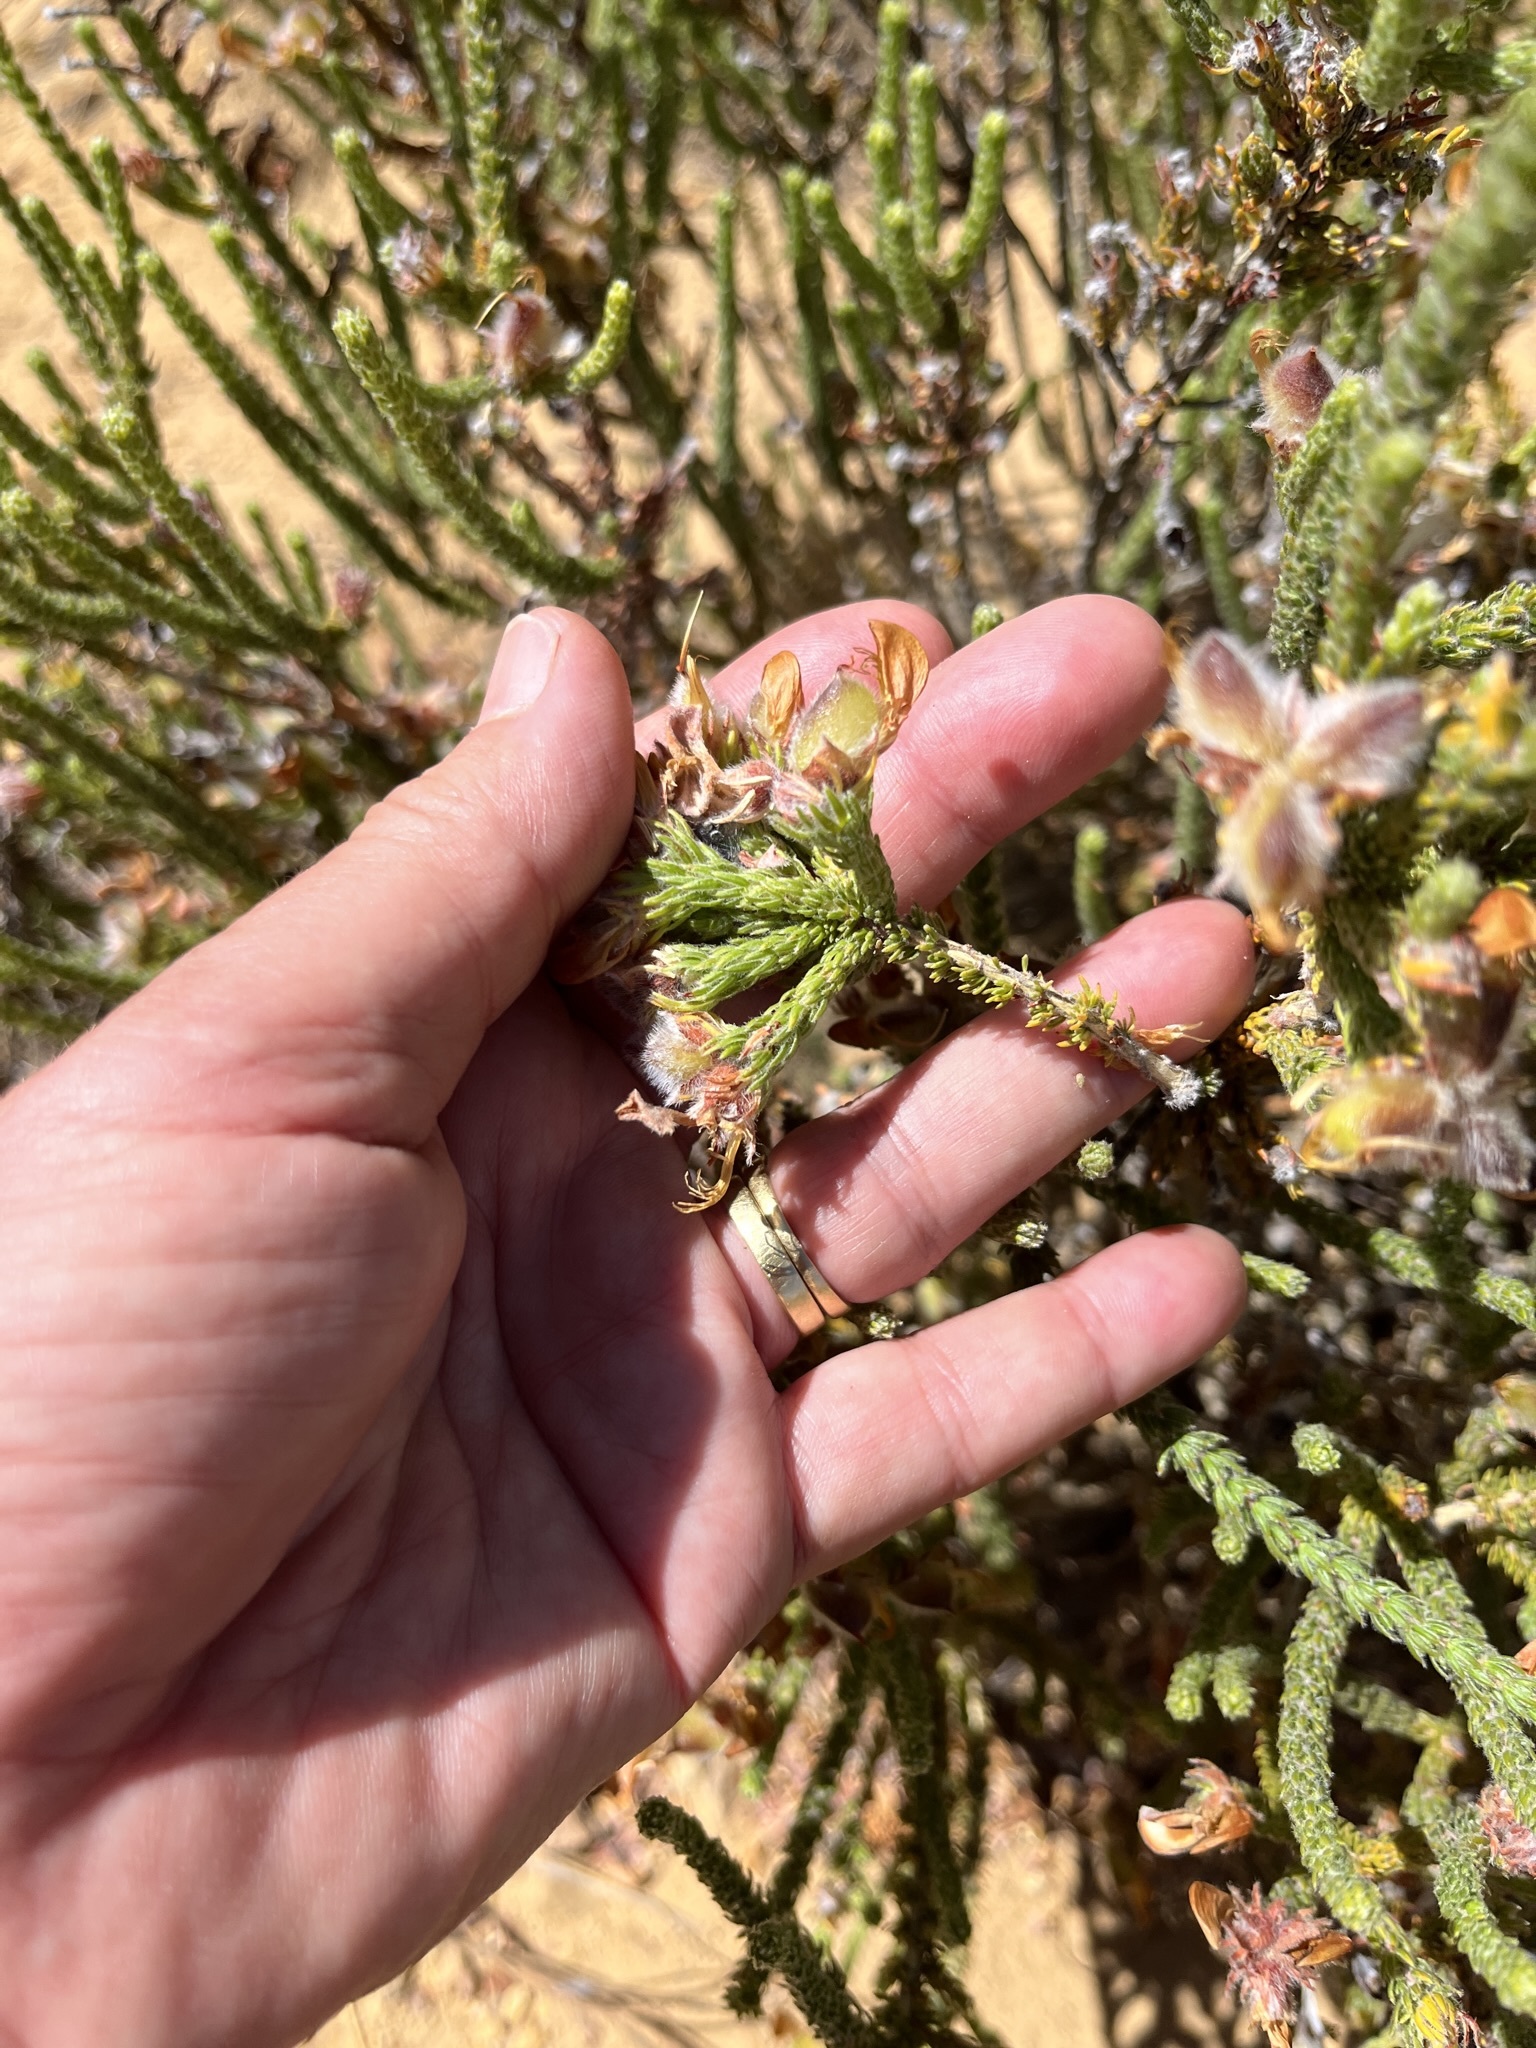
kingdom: Plantae
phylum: Tracheophyta
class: Magnoliopsida
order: Fabales
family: Fabaceae
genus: Aspalathus
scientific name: Aspalathus triquetra
